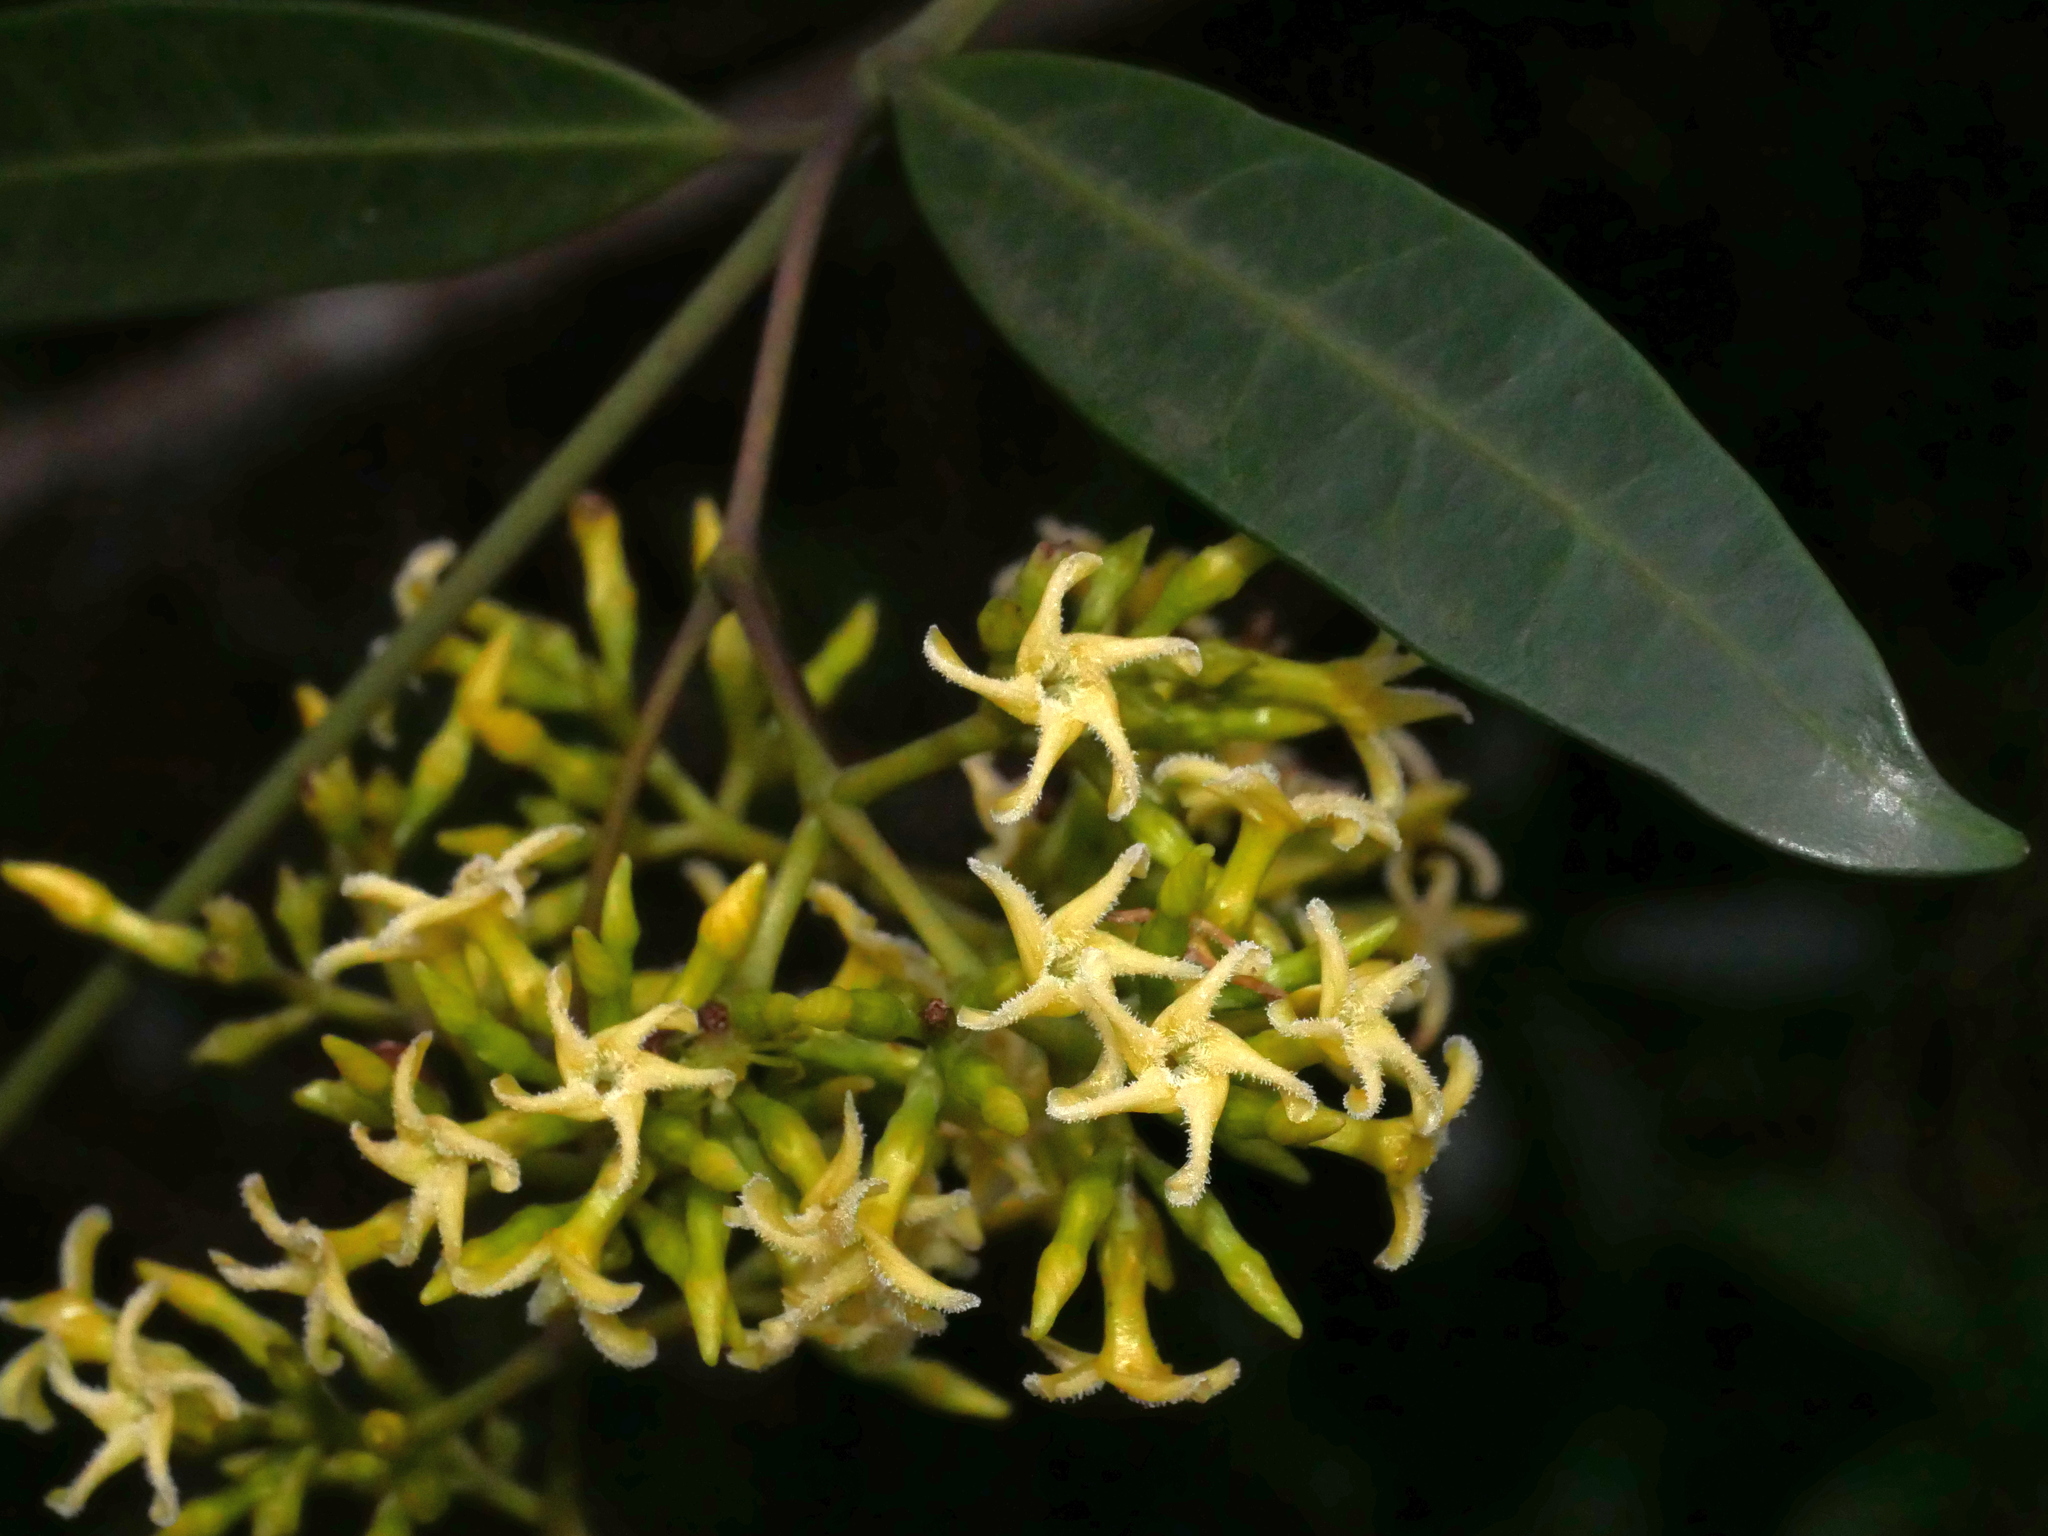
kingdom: Plantae
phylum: Tracheophyta
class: Magnoliopsida
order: Gentianales
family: Apocynaceae
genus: Anodendron
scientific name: Anodendron affine
